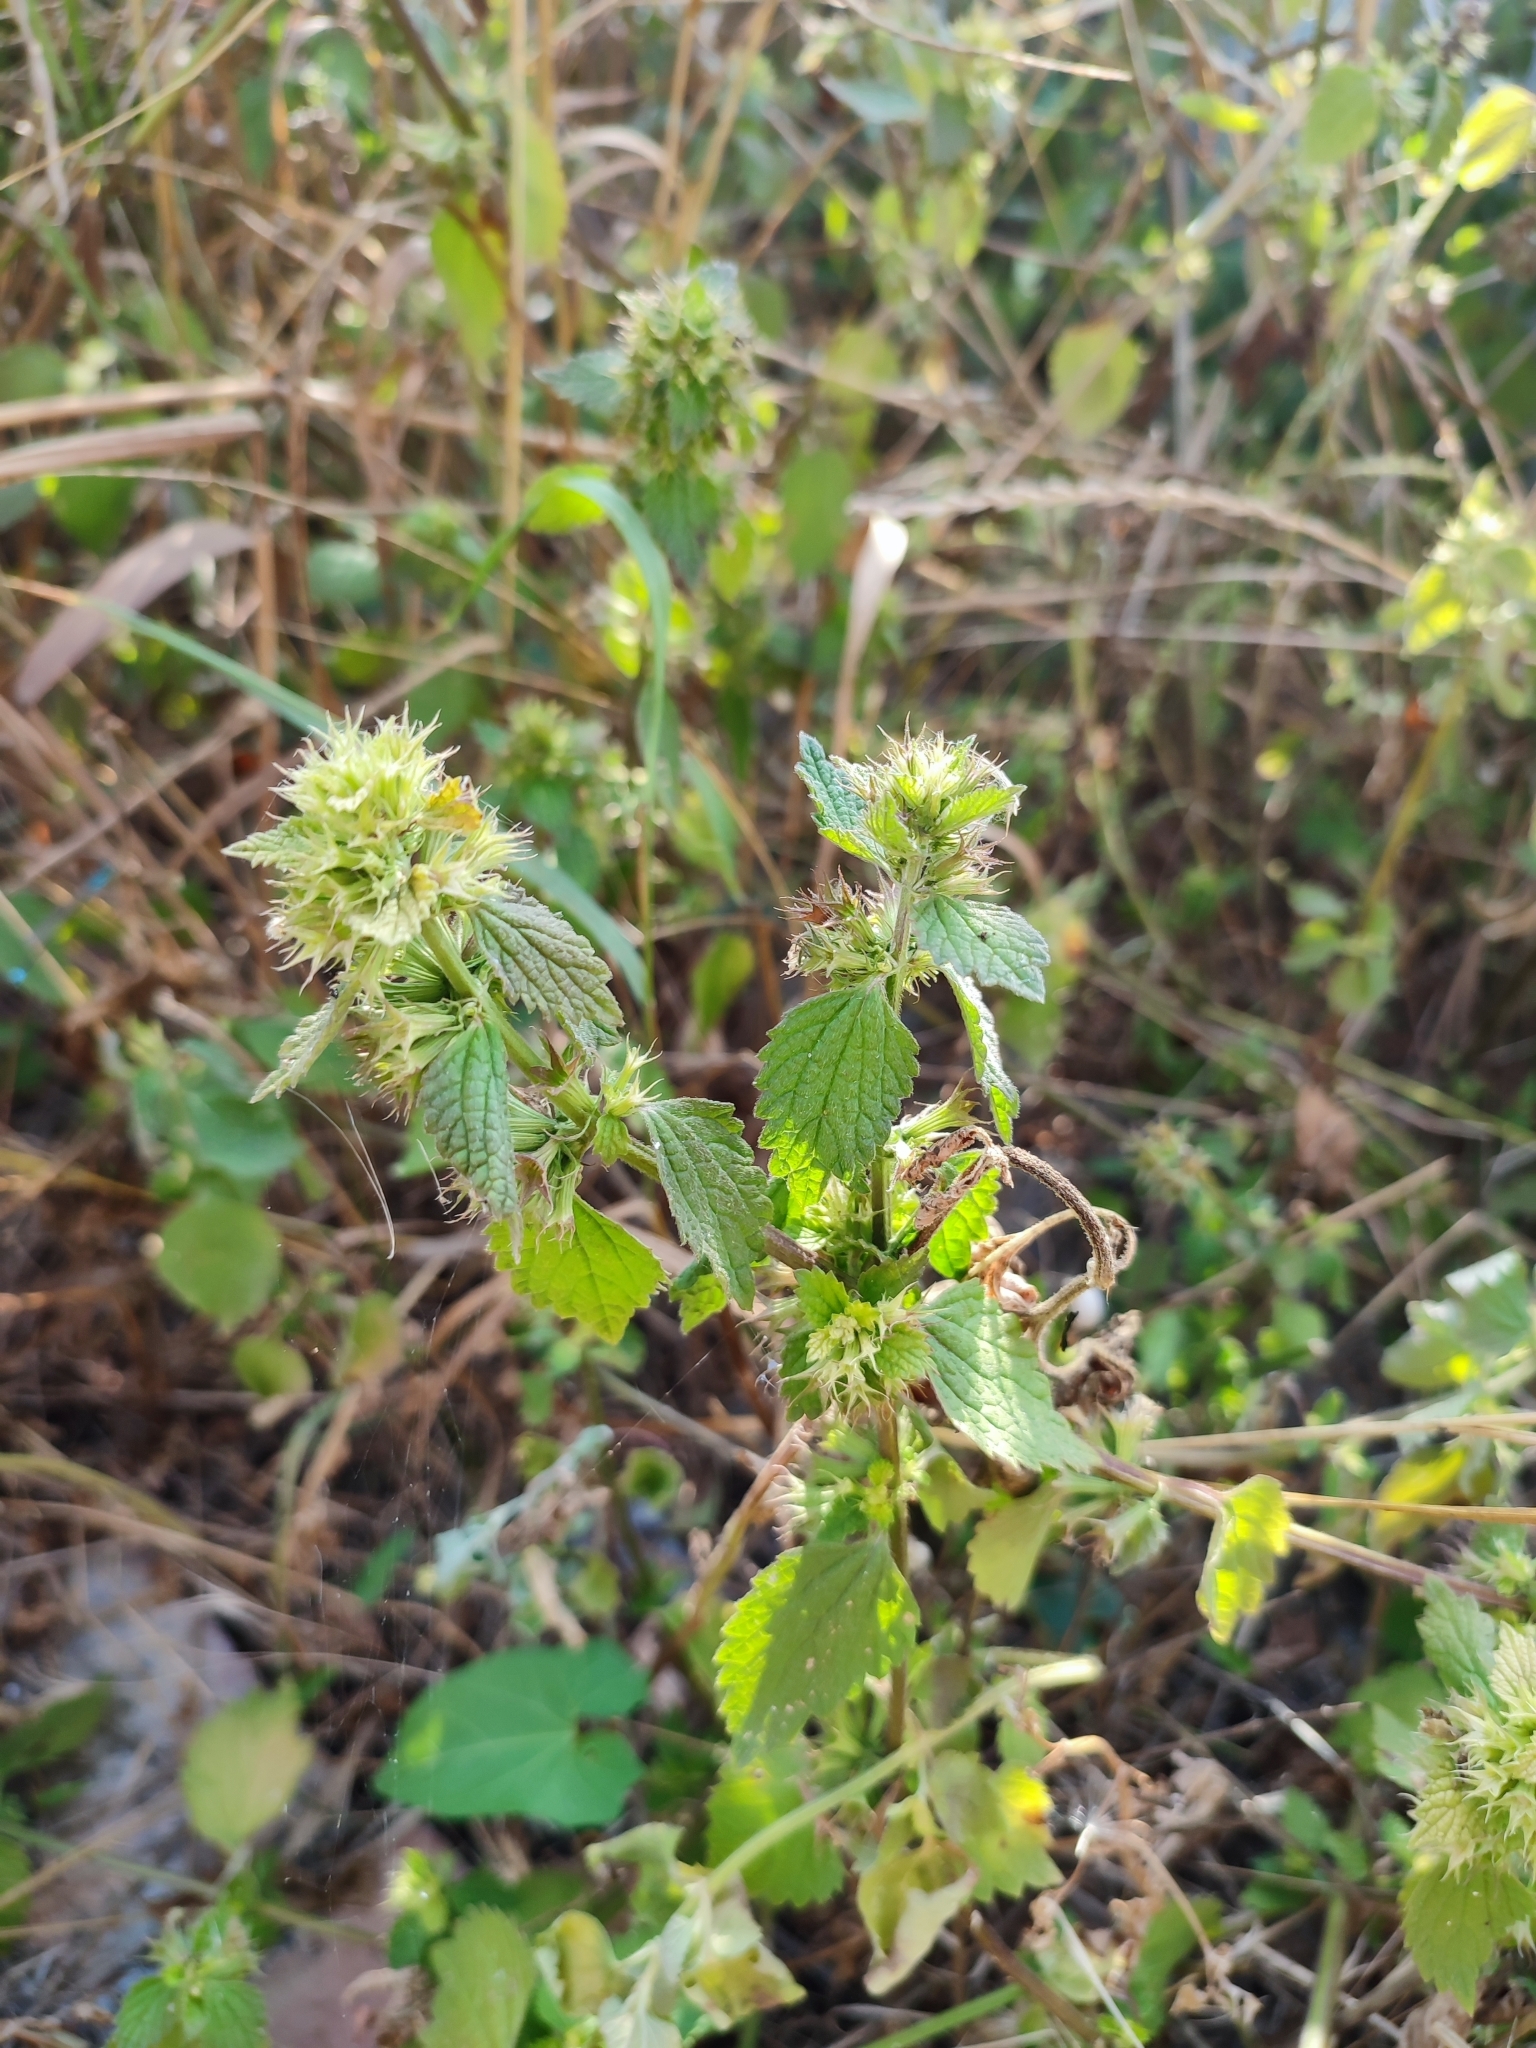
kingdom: Plantae
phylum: Tracheophyta
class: Magnoliopsida
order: Lamiales
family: Lamiaceae
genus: Ballota
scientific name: Ballota nigra
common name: Black horehound
